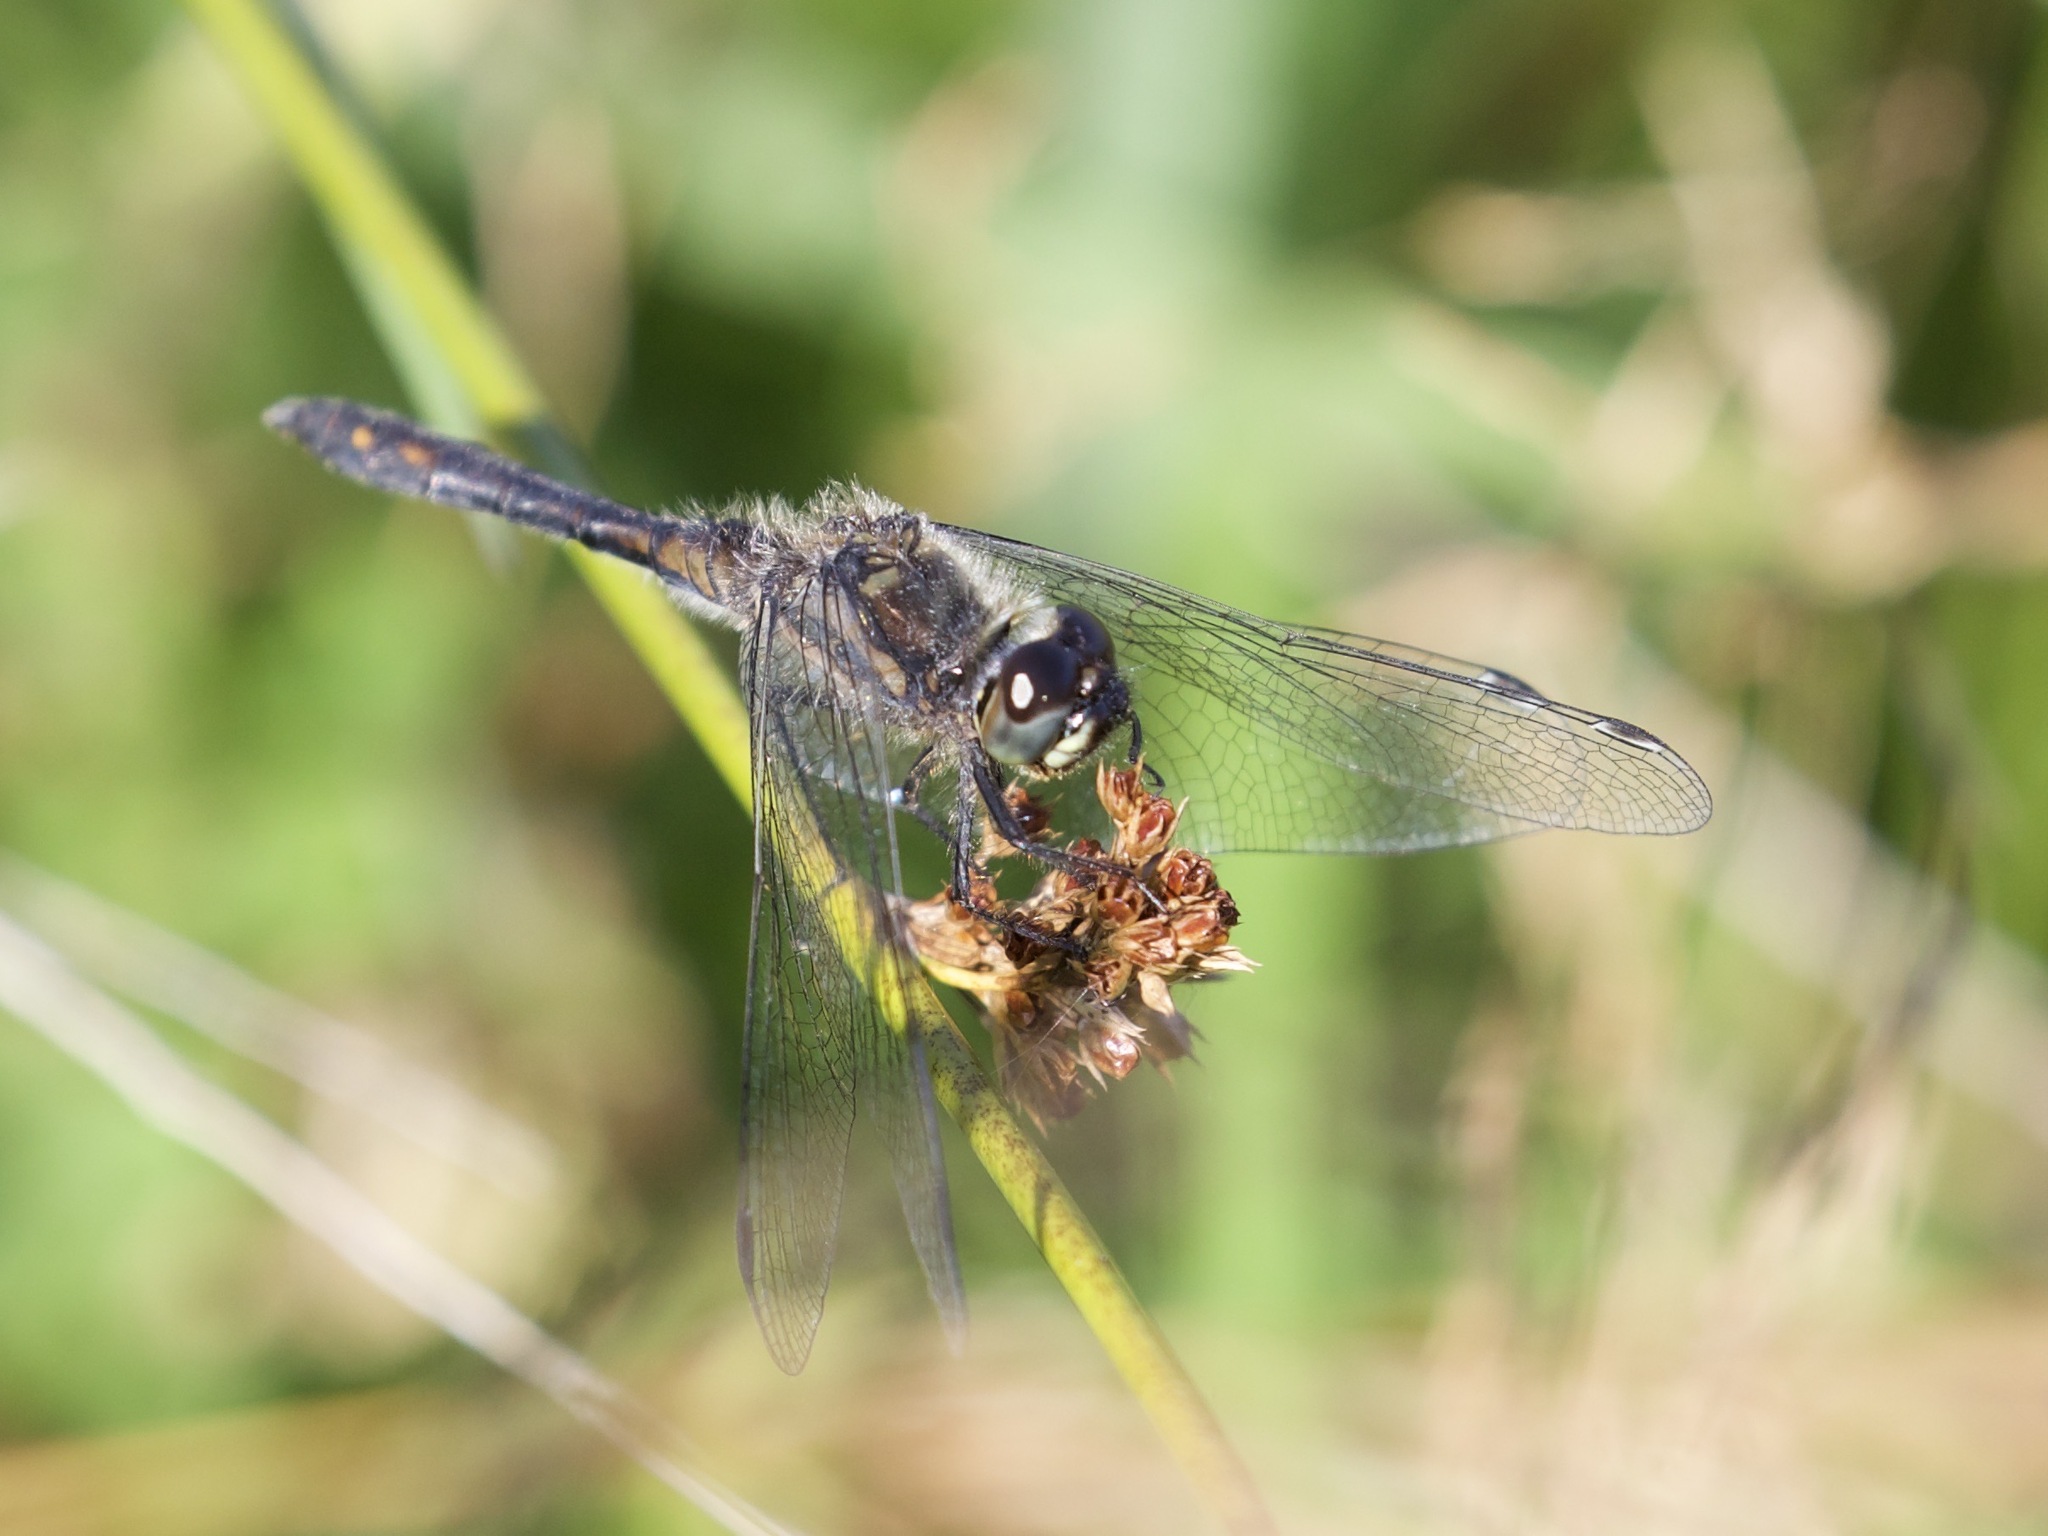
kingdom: Animalia
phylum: Arthropoda
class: Insecta
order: Odonata
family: Libellulidae
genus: Sympetrum
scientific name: Sympetrum danae
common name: Black darter
